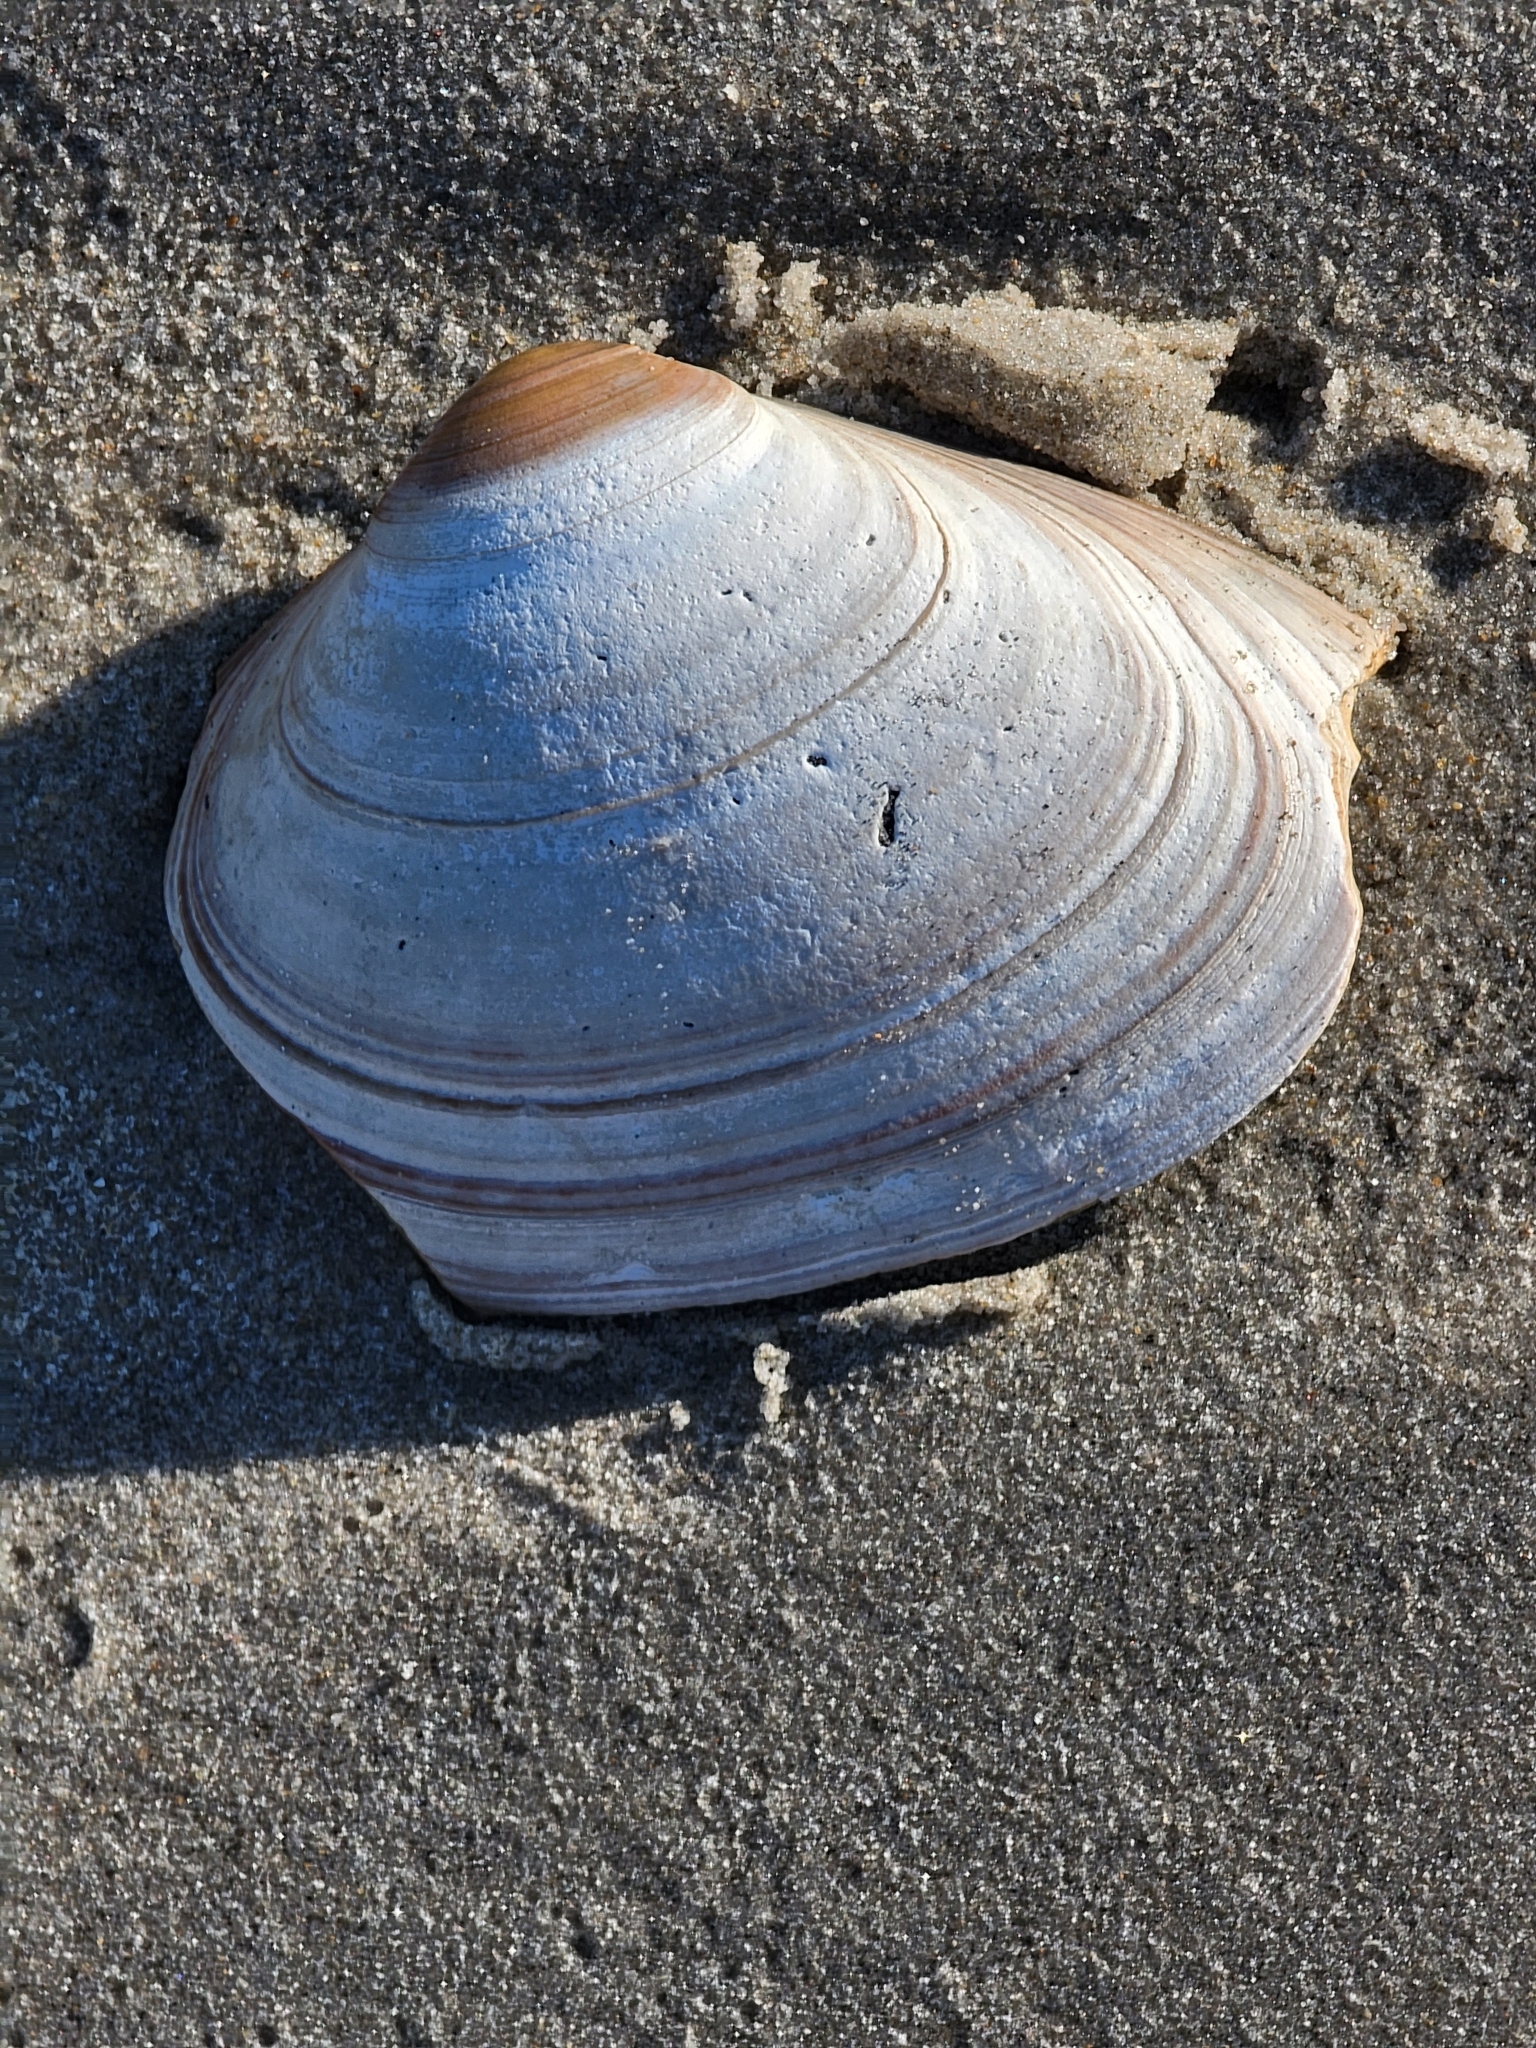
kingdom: Animalia
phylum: Mollusca
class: Bivalvia
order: Venerida
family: Mactridae
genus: Spisula
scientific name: Spisula solidissima
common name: Atlantic surf clam
